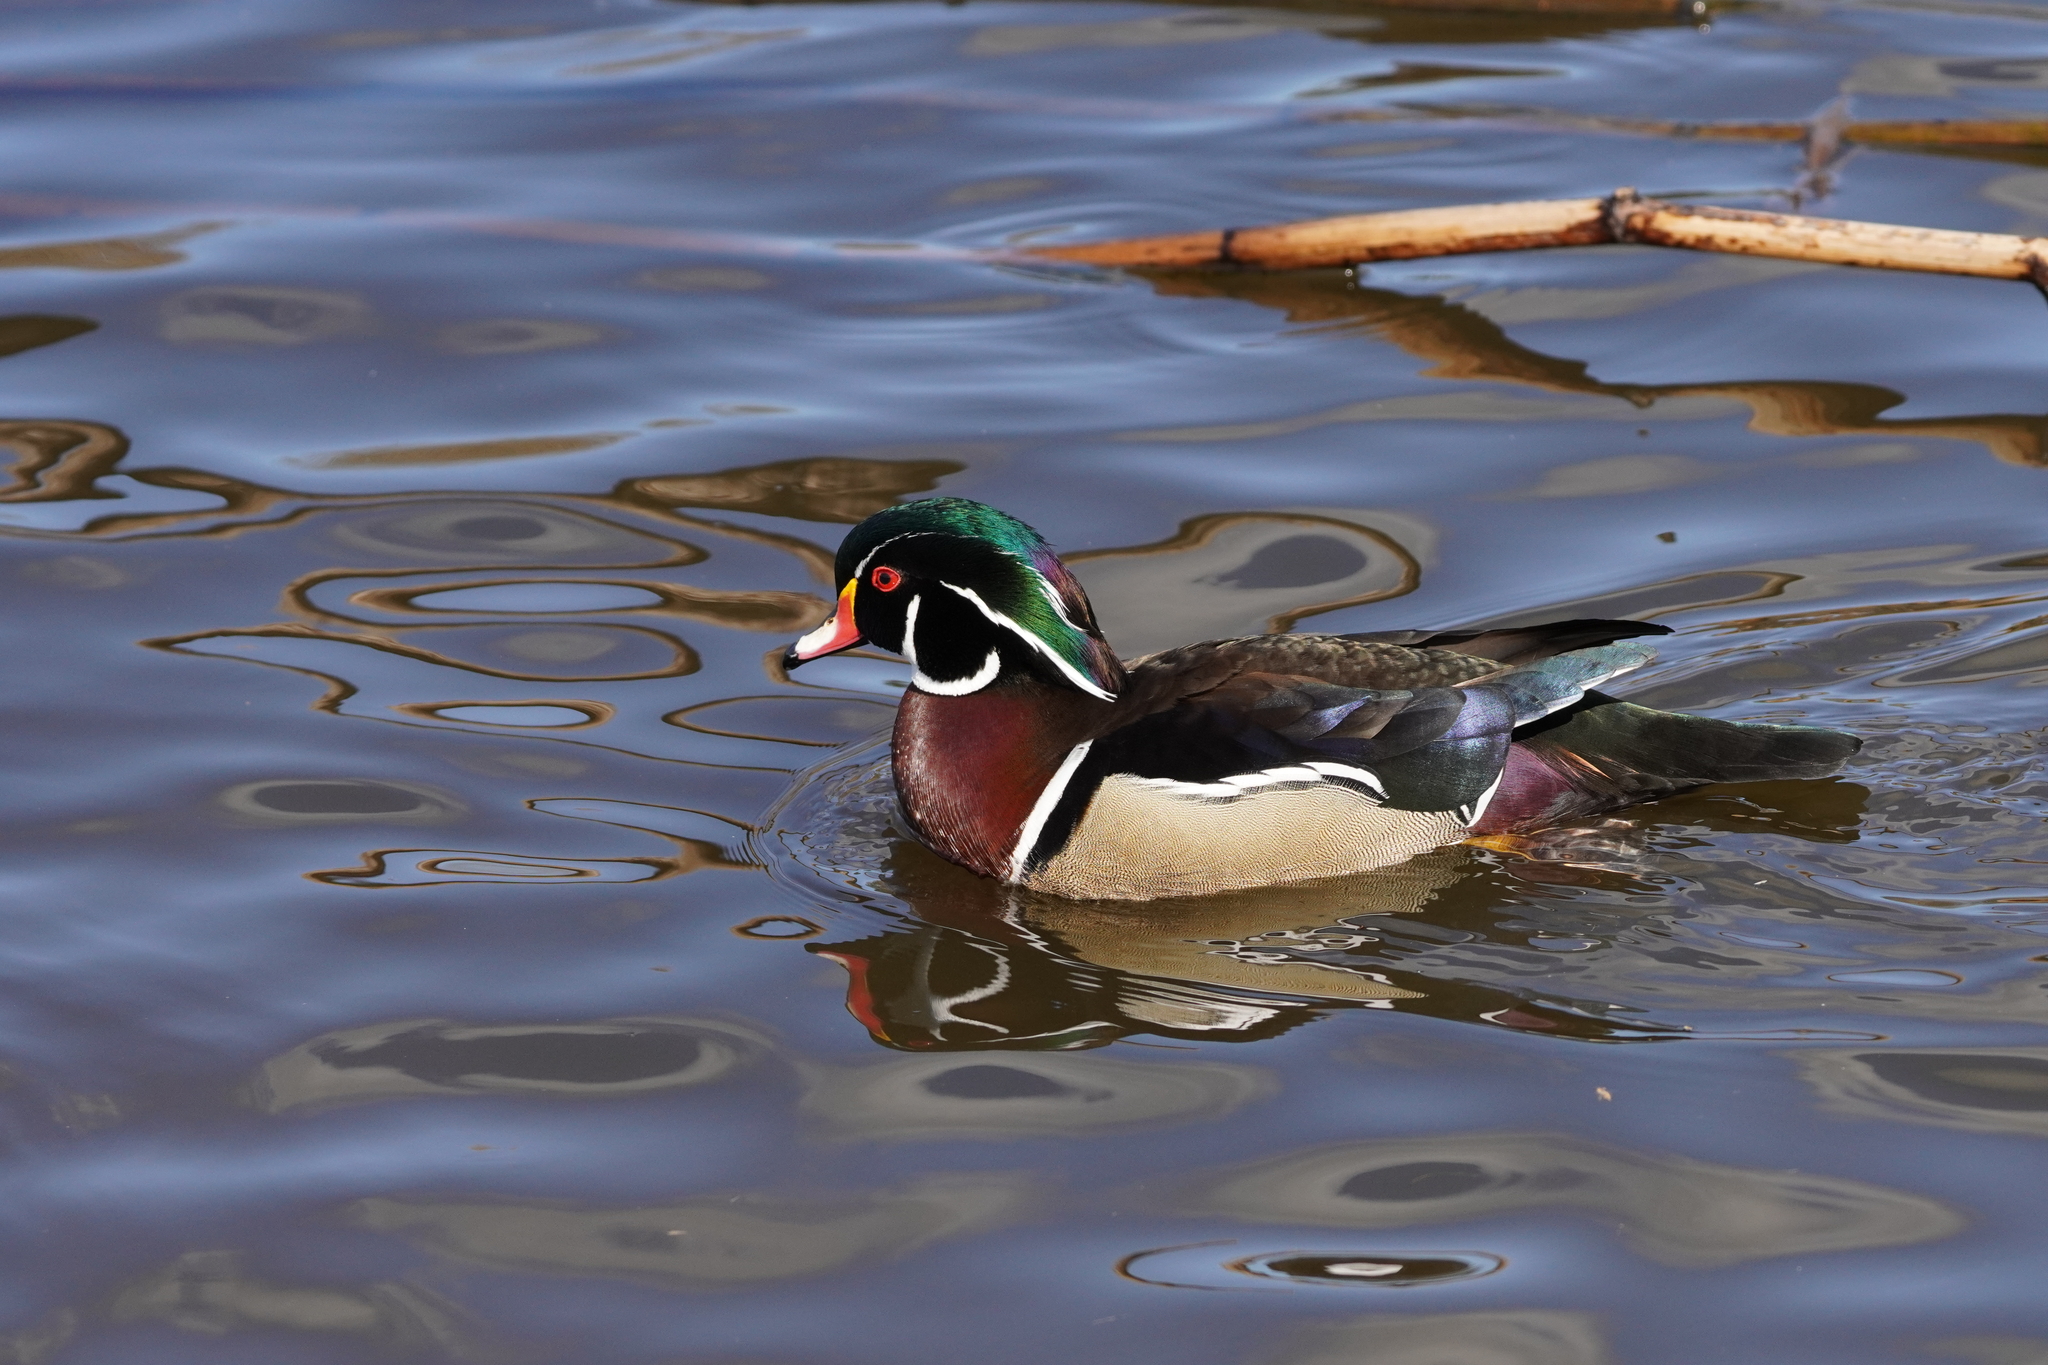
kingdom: Animalia
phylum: Chordata
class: Aves
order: Anseriformes
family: Anatidae
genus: Aix
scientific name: Aix sponsa
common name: Wood duck
